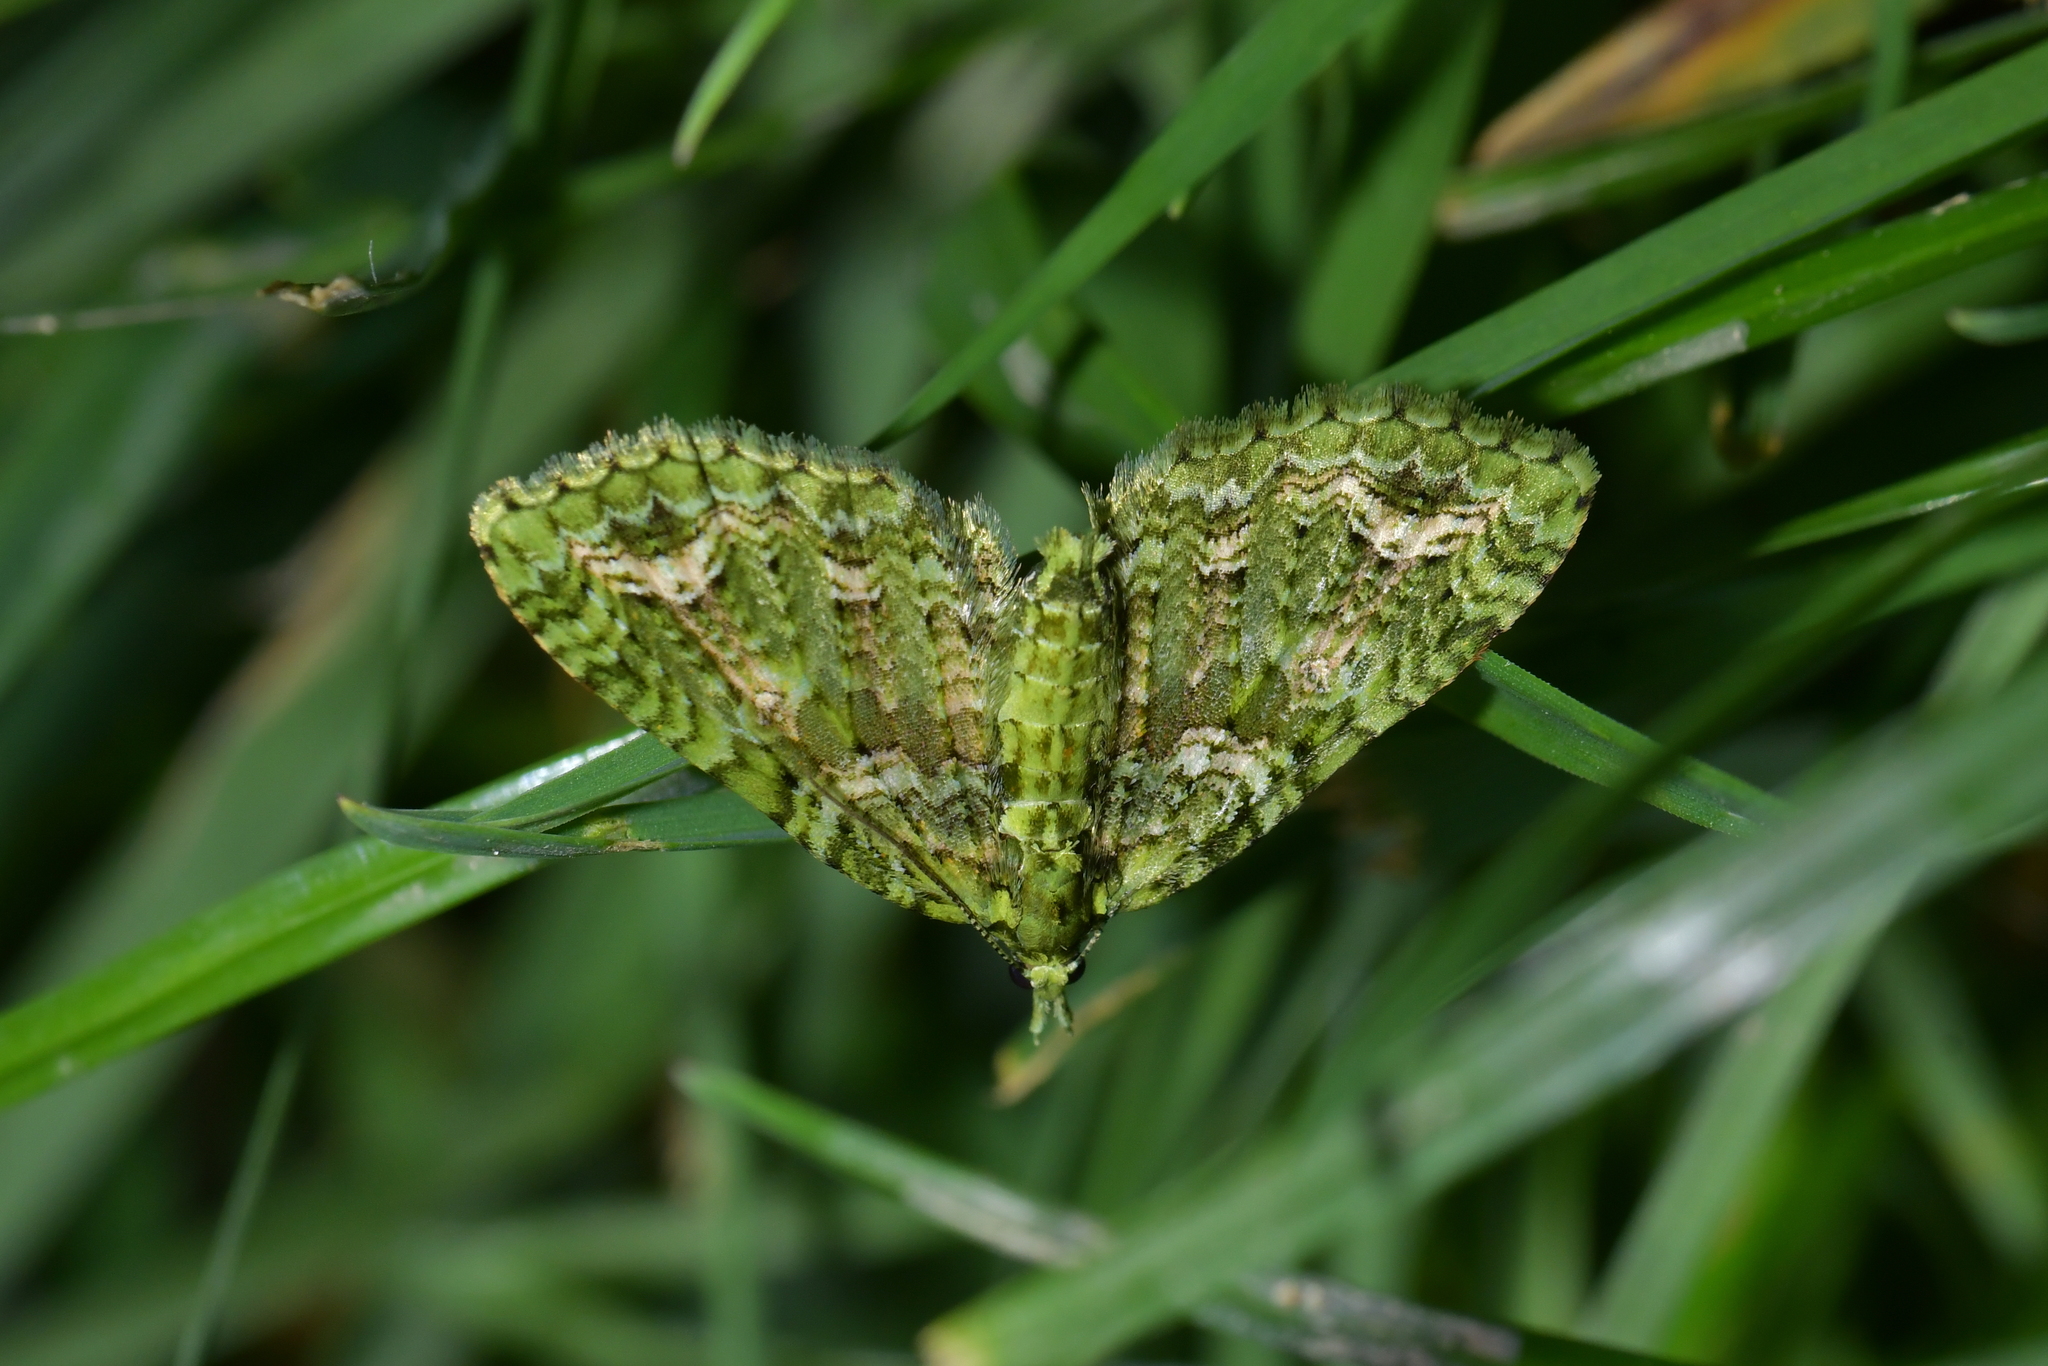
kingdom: Animalia
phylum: Arthropoda
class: Insecta
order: Lepidoptera
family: Geometridae
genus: Pasiphila
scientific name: Pasiphila muscosata
